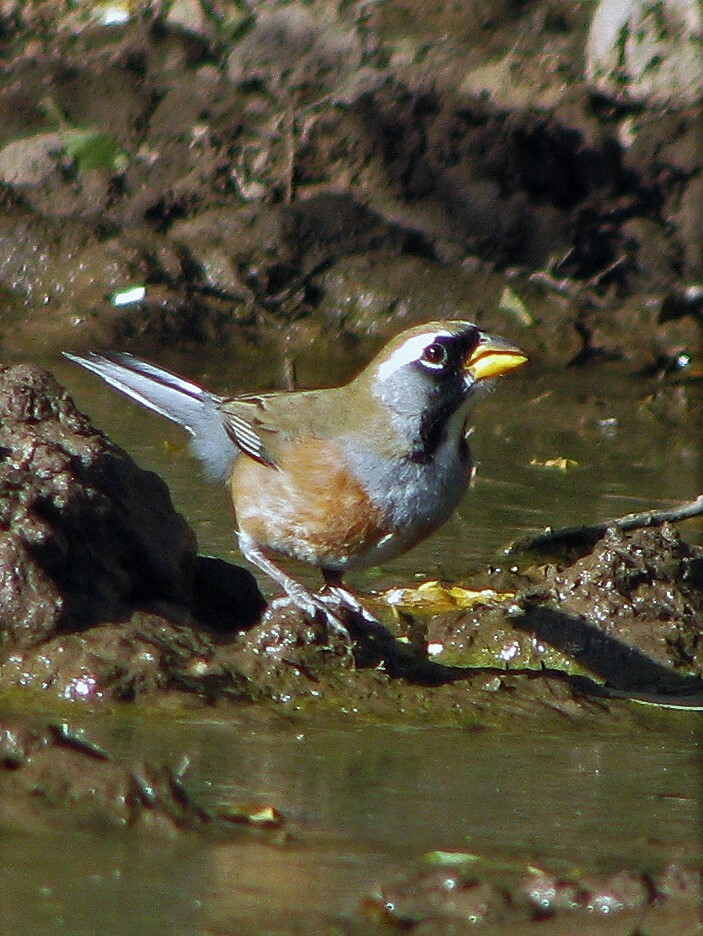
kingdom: Animalia
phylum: Chordata
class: Aves
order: Passeriformes
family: Thraupidae
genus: Saltatricula
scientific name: Saltatricula multicolor
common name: Many-colored chaco finch
